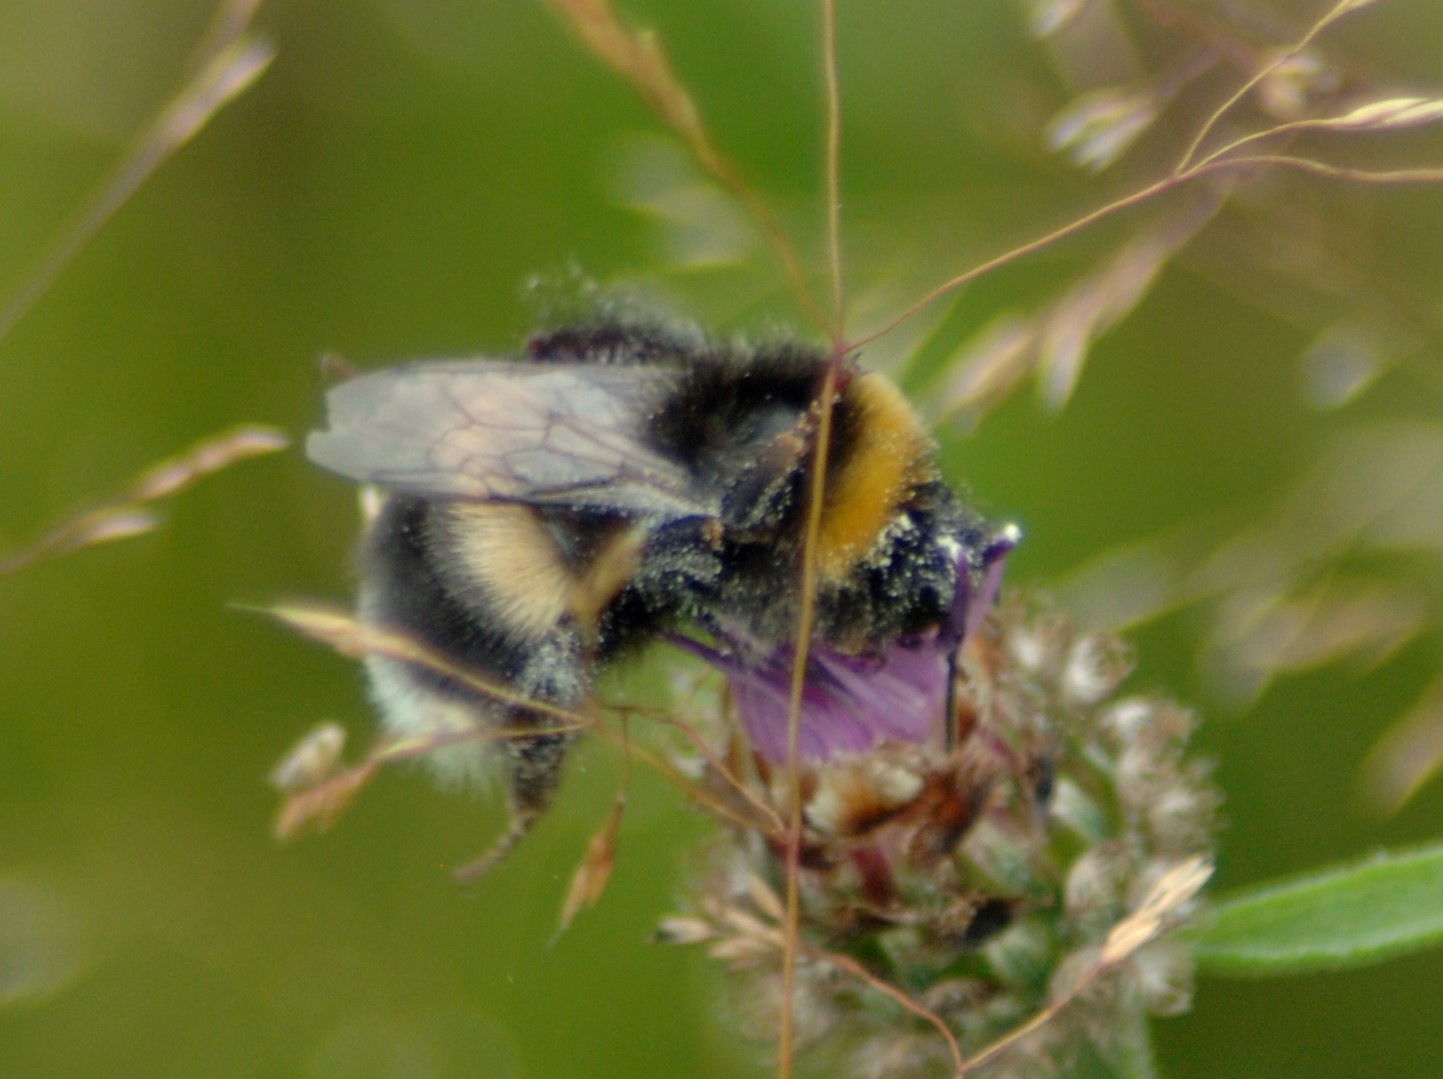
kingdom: Animalia
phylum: Arthropoda
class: Insecta
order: Hymenoptera
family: Apidae
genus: Bombus
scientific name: Bombus
